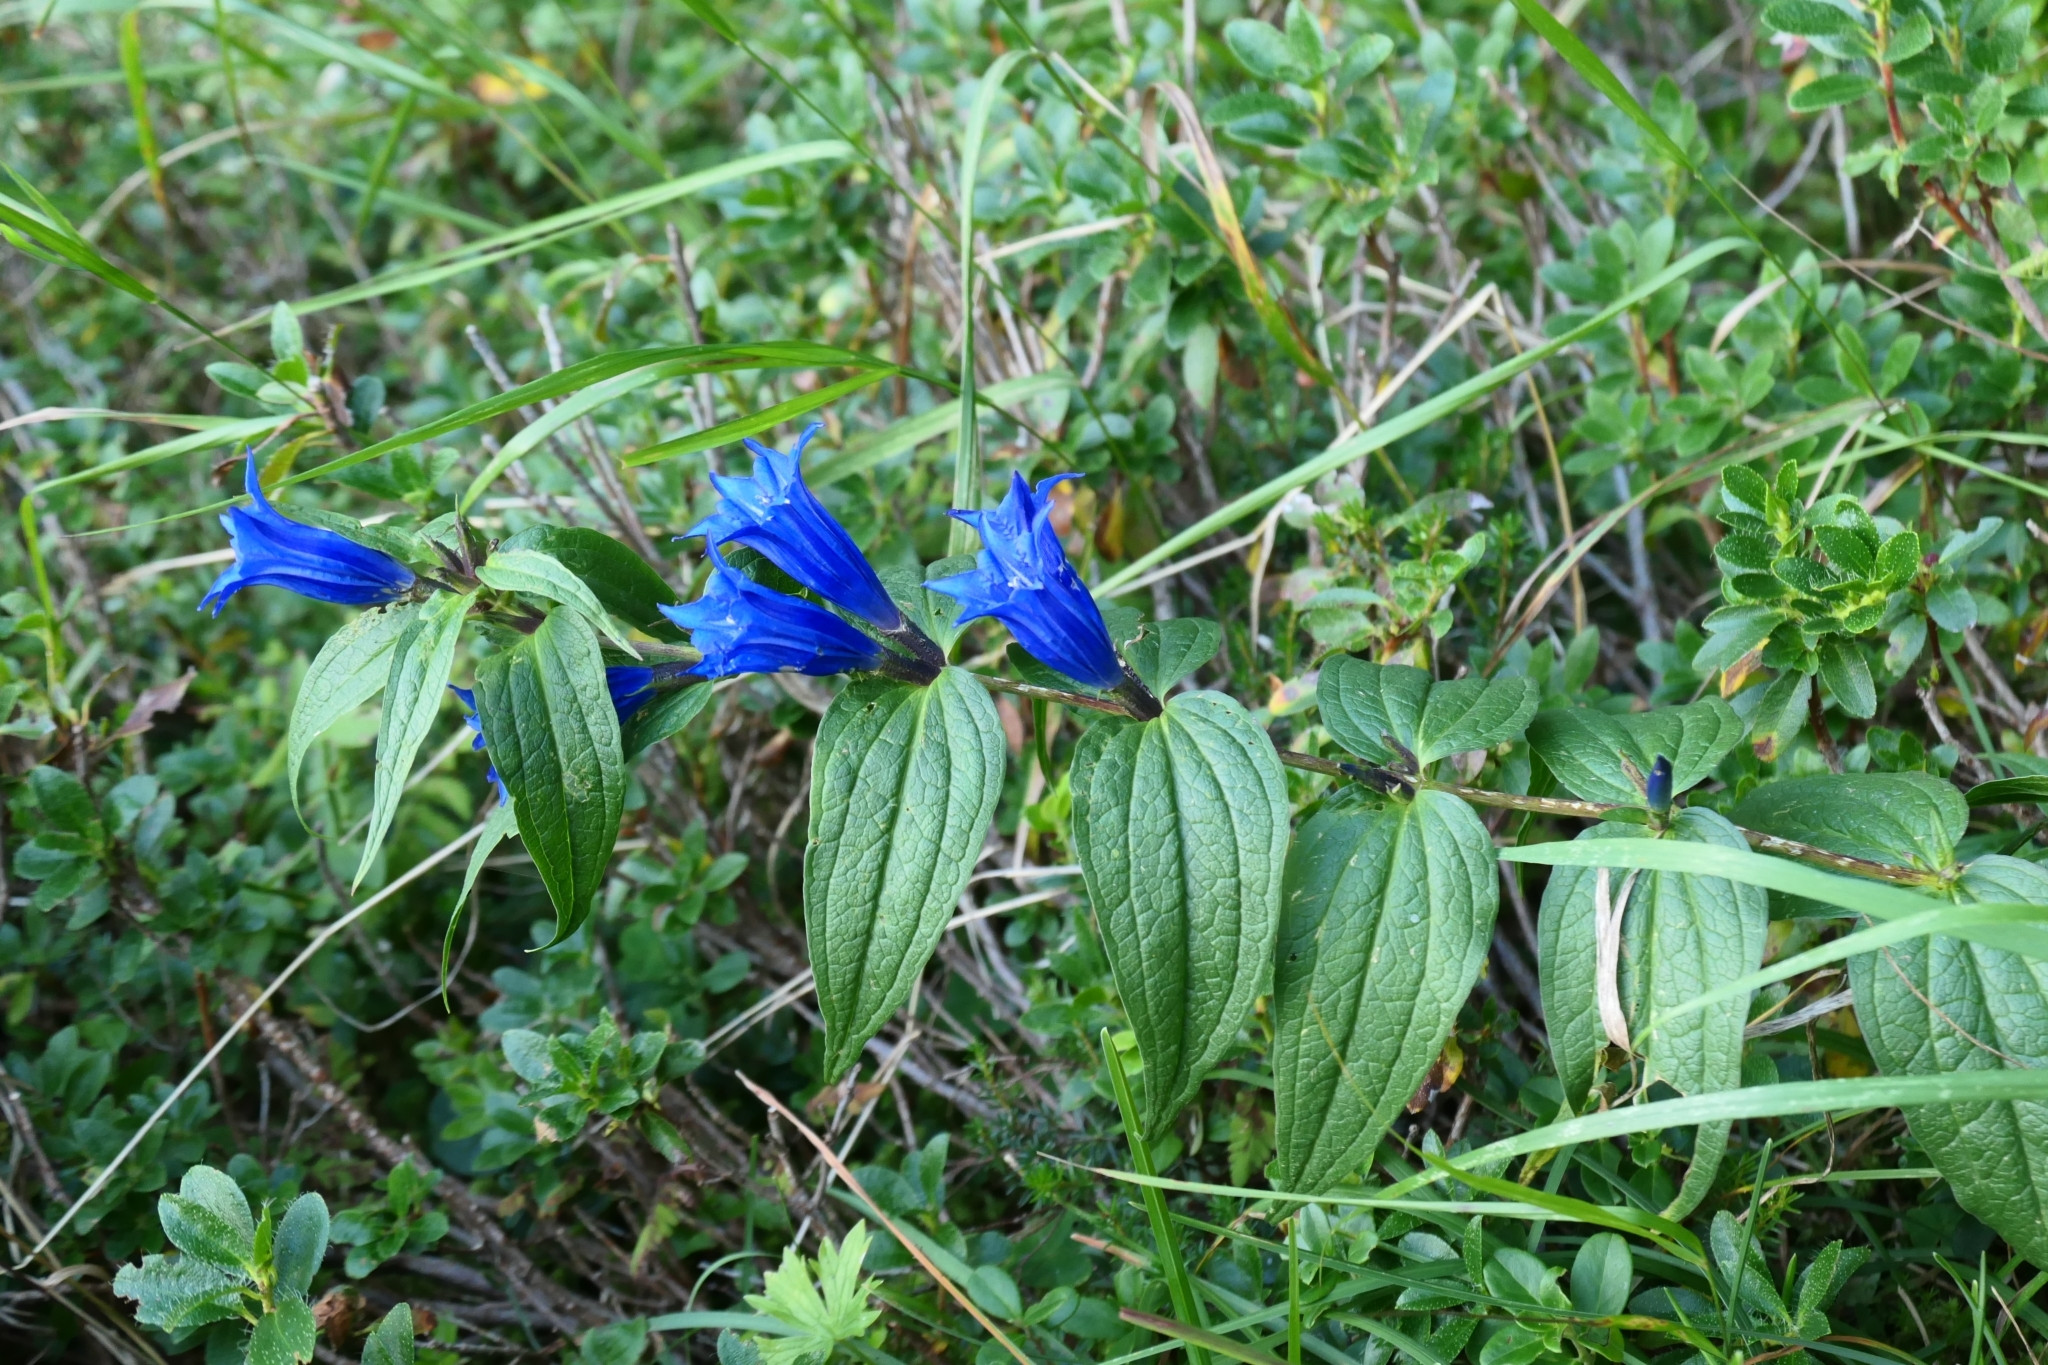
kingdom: Plantae
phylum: Tracheophyta
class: Magnoliopsida
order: Gentianales
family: Gentianaceae
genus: Gentiana
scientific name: Gentiana asclepiadea
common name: Willow gentian
